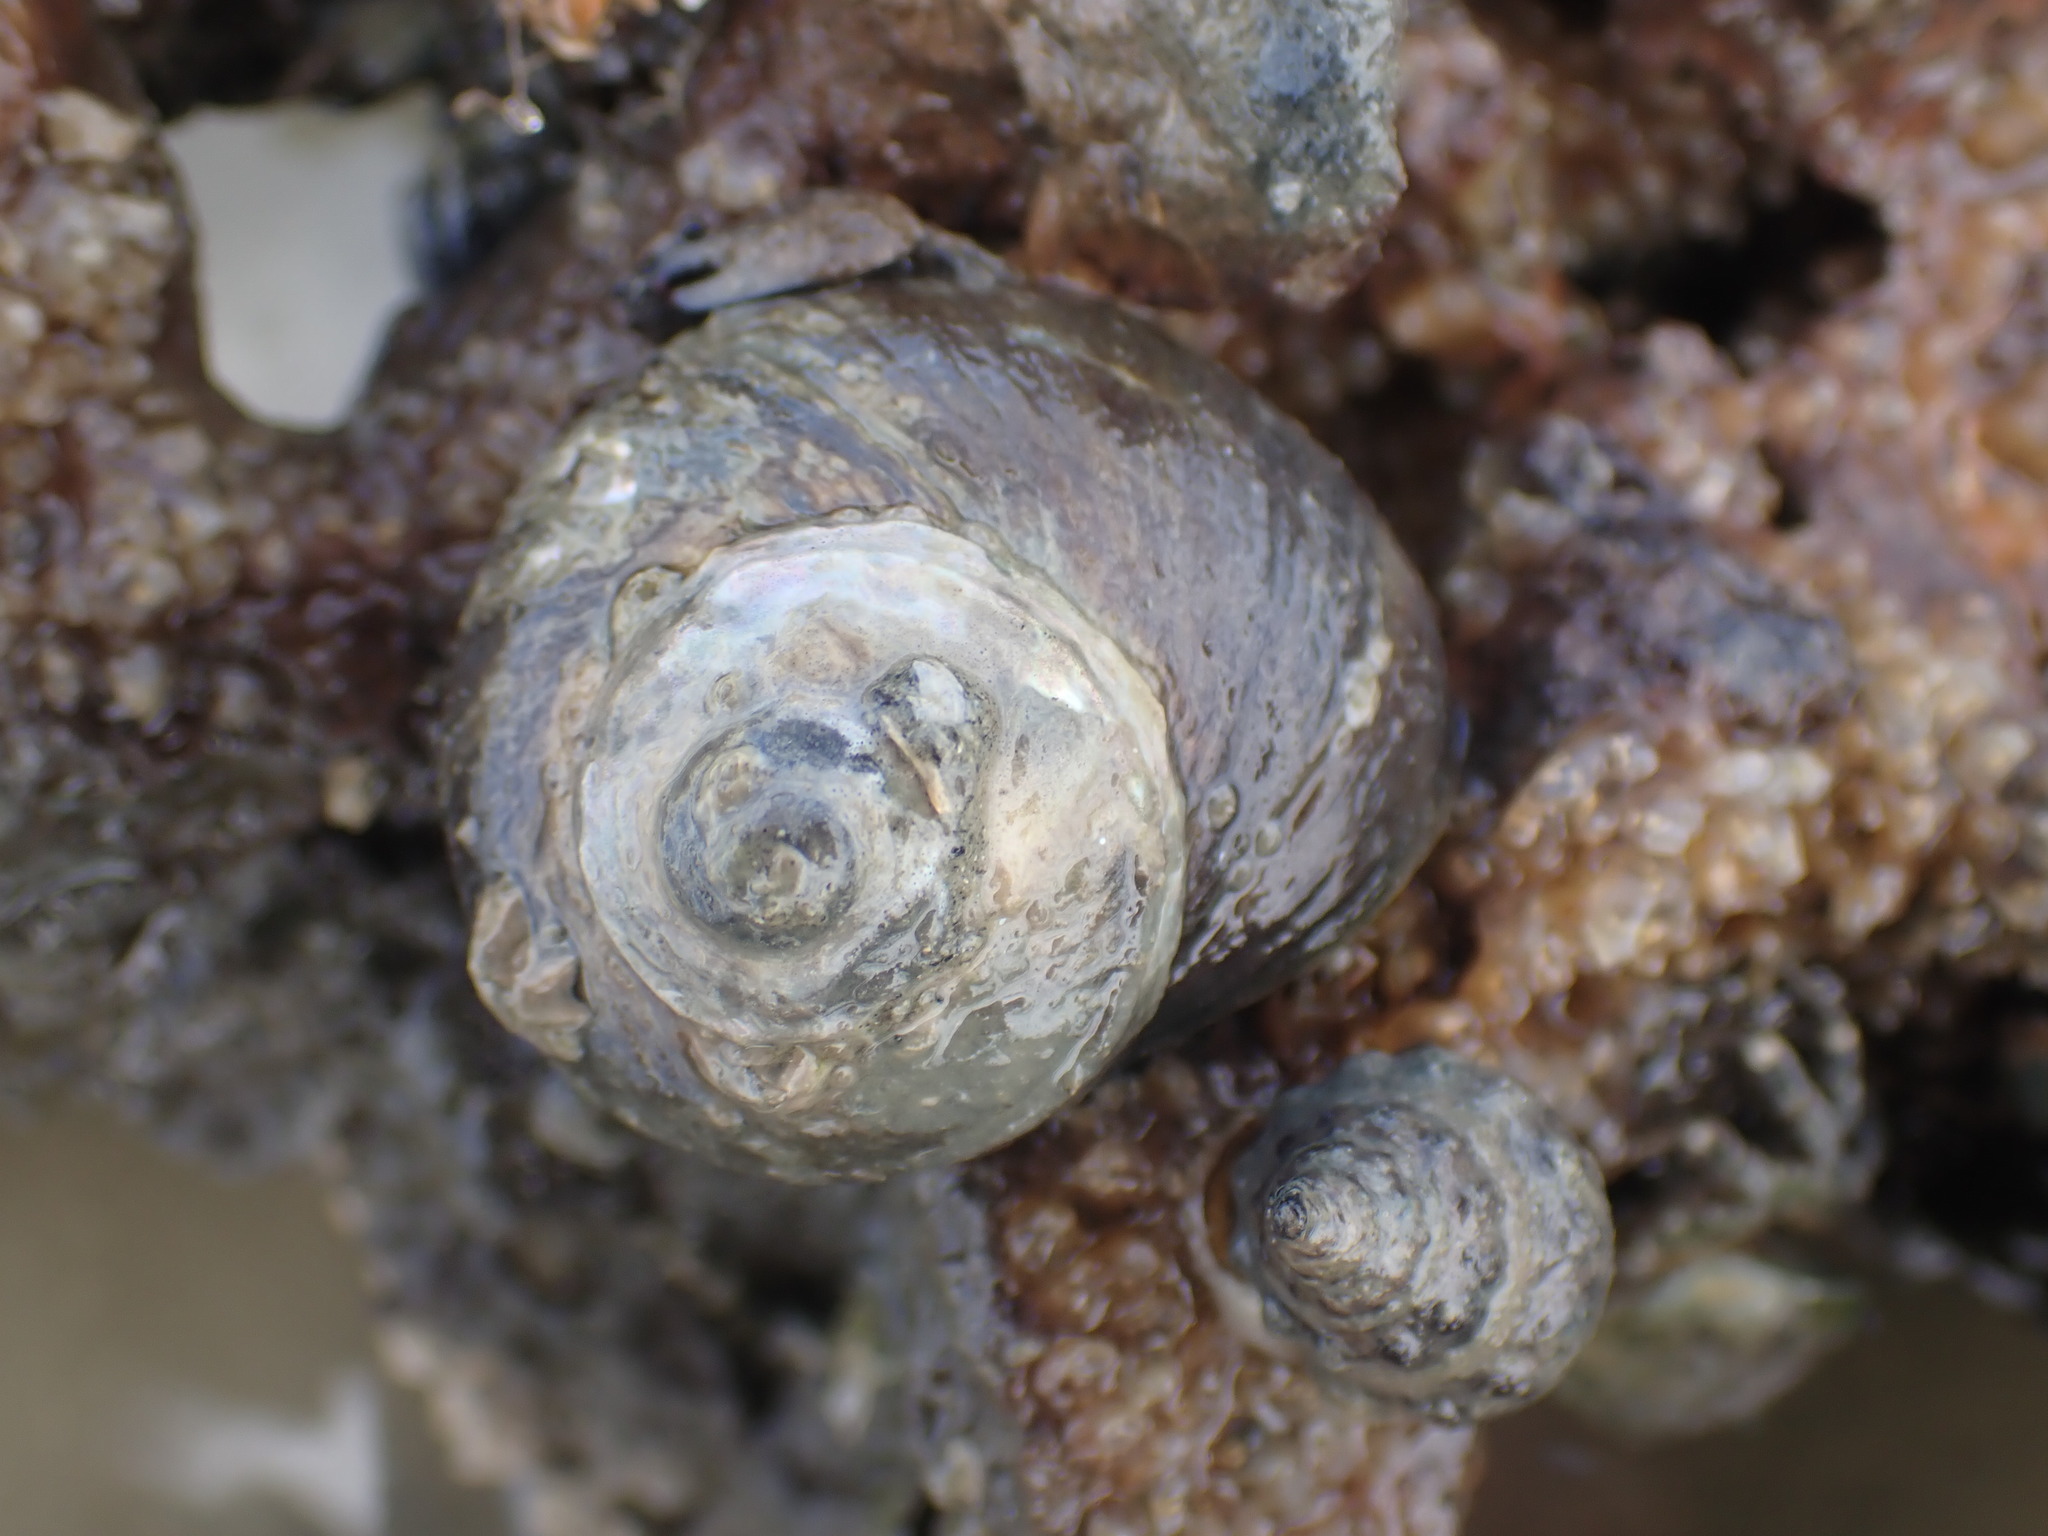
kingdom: Animalia
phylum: Mollusca
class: Gastropoda
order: Trochida
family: Turbinidae
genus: Lunella
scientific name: Lunella smaragda
